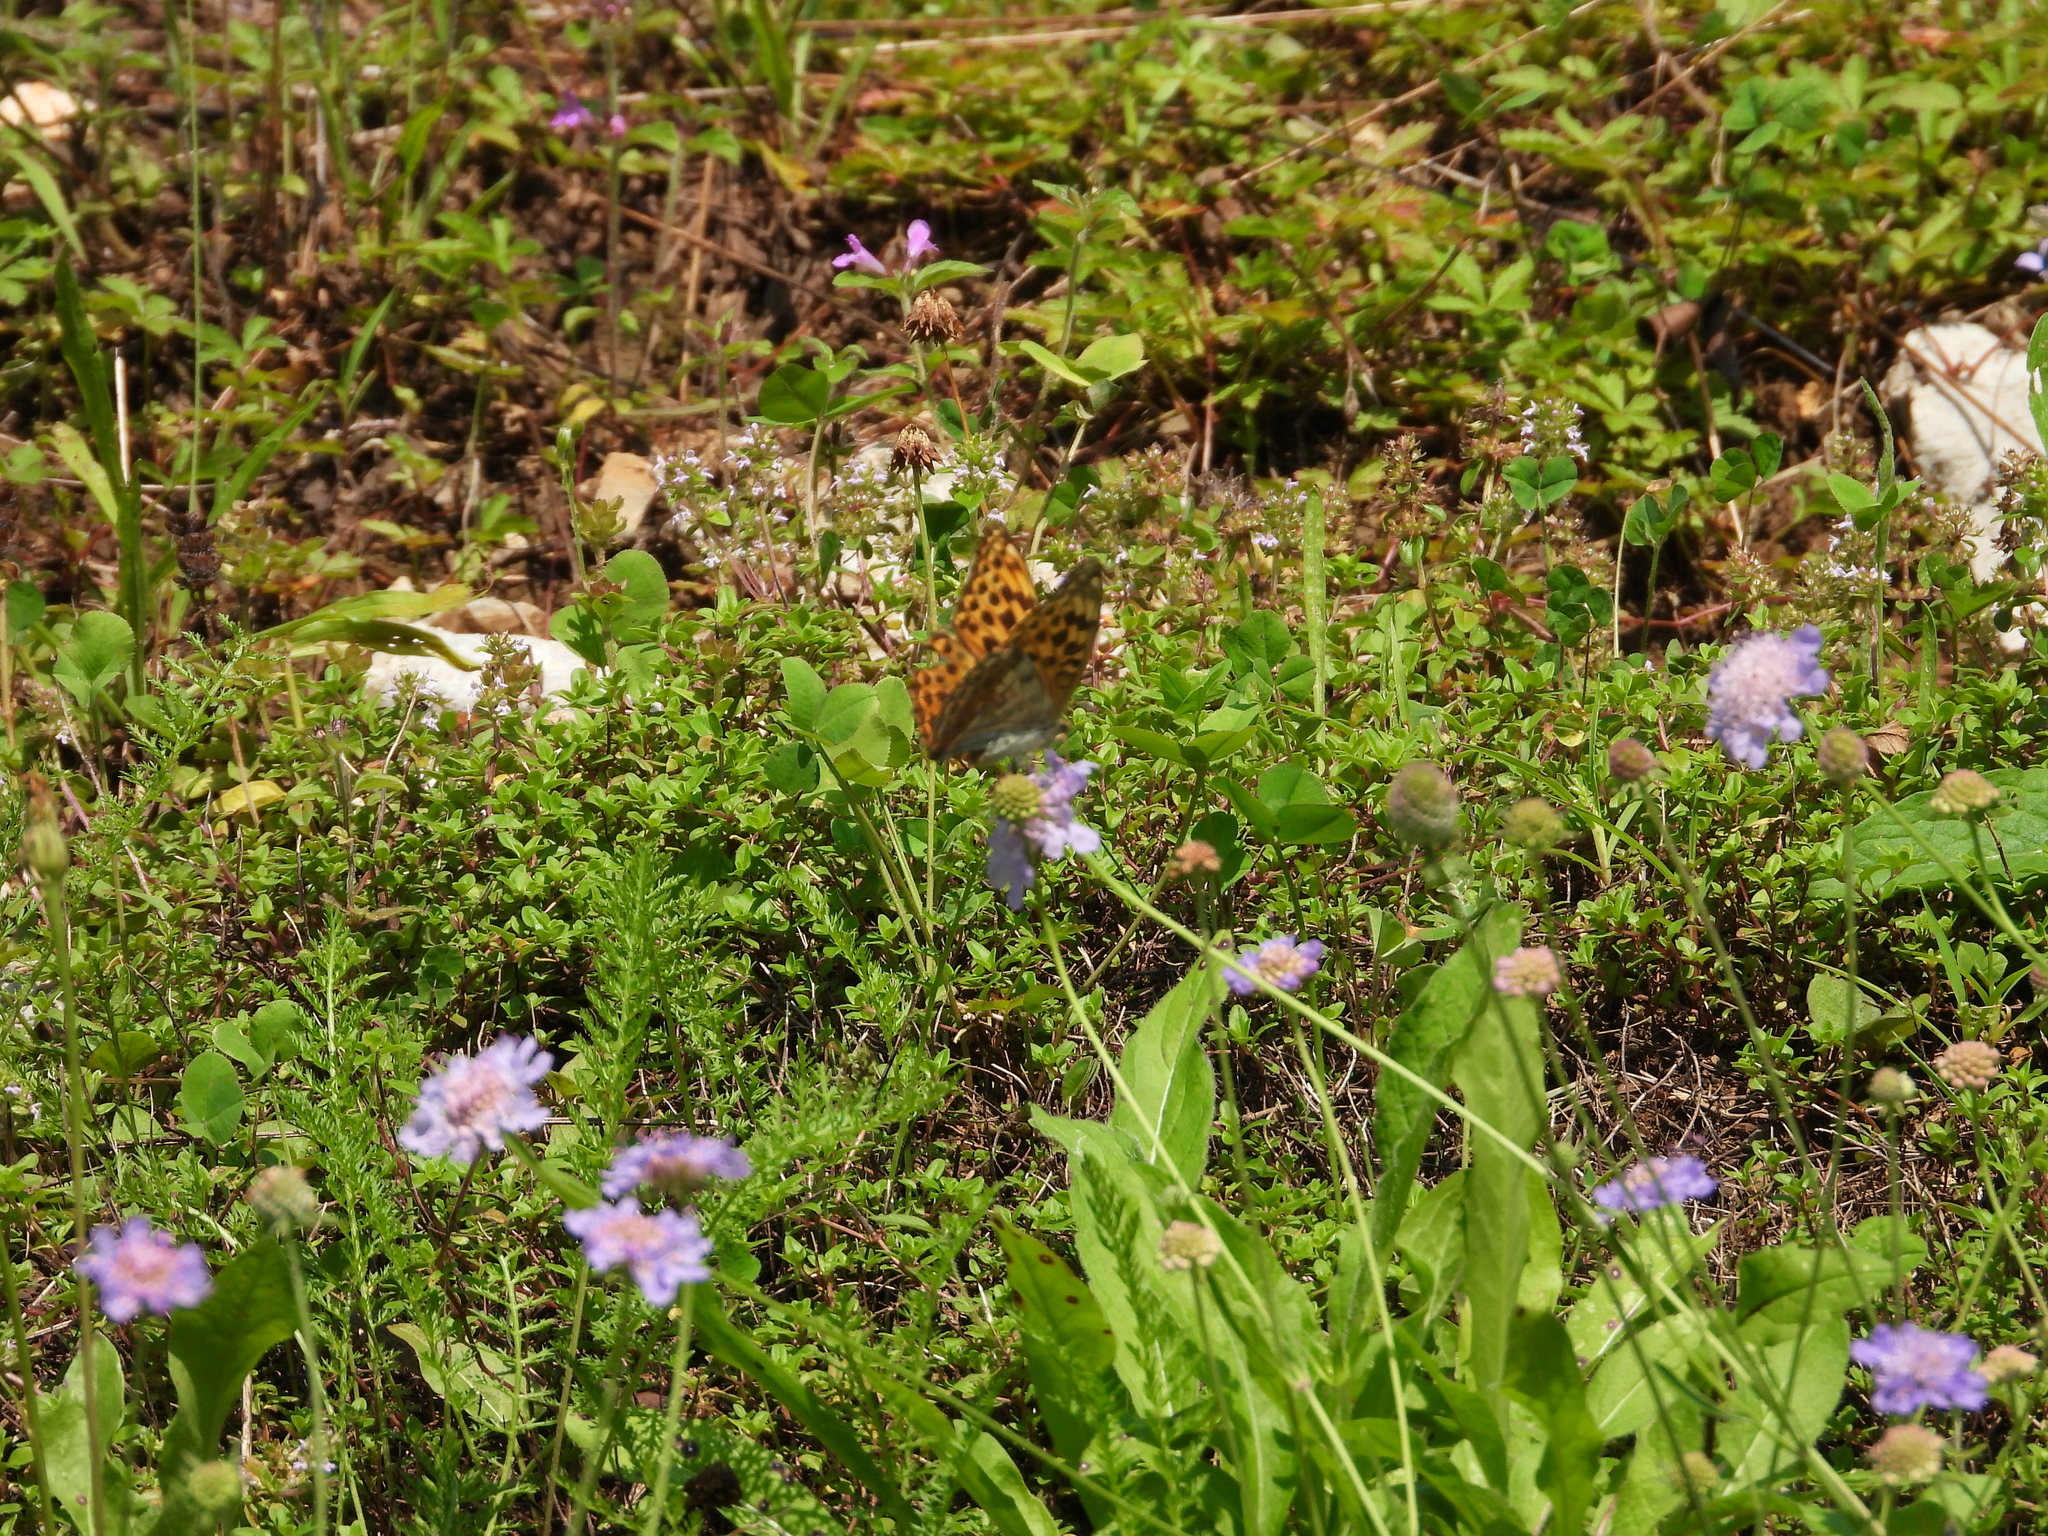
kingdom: Animalia
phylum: Arthropoda
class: Insecta
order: Lepidoptera
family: Nymphalidae
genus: Argynnis
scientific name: Argynnis paphia
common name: Silver-washed fritillary
